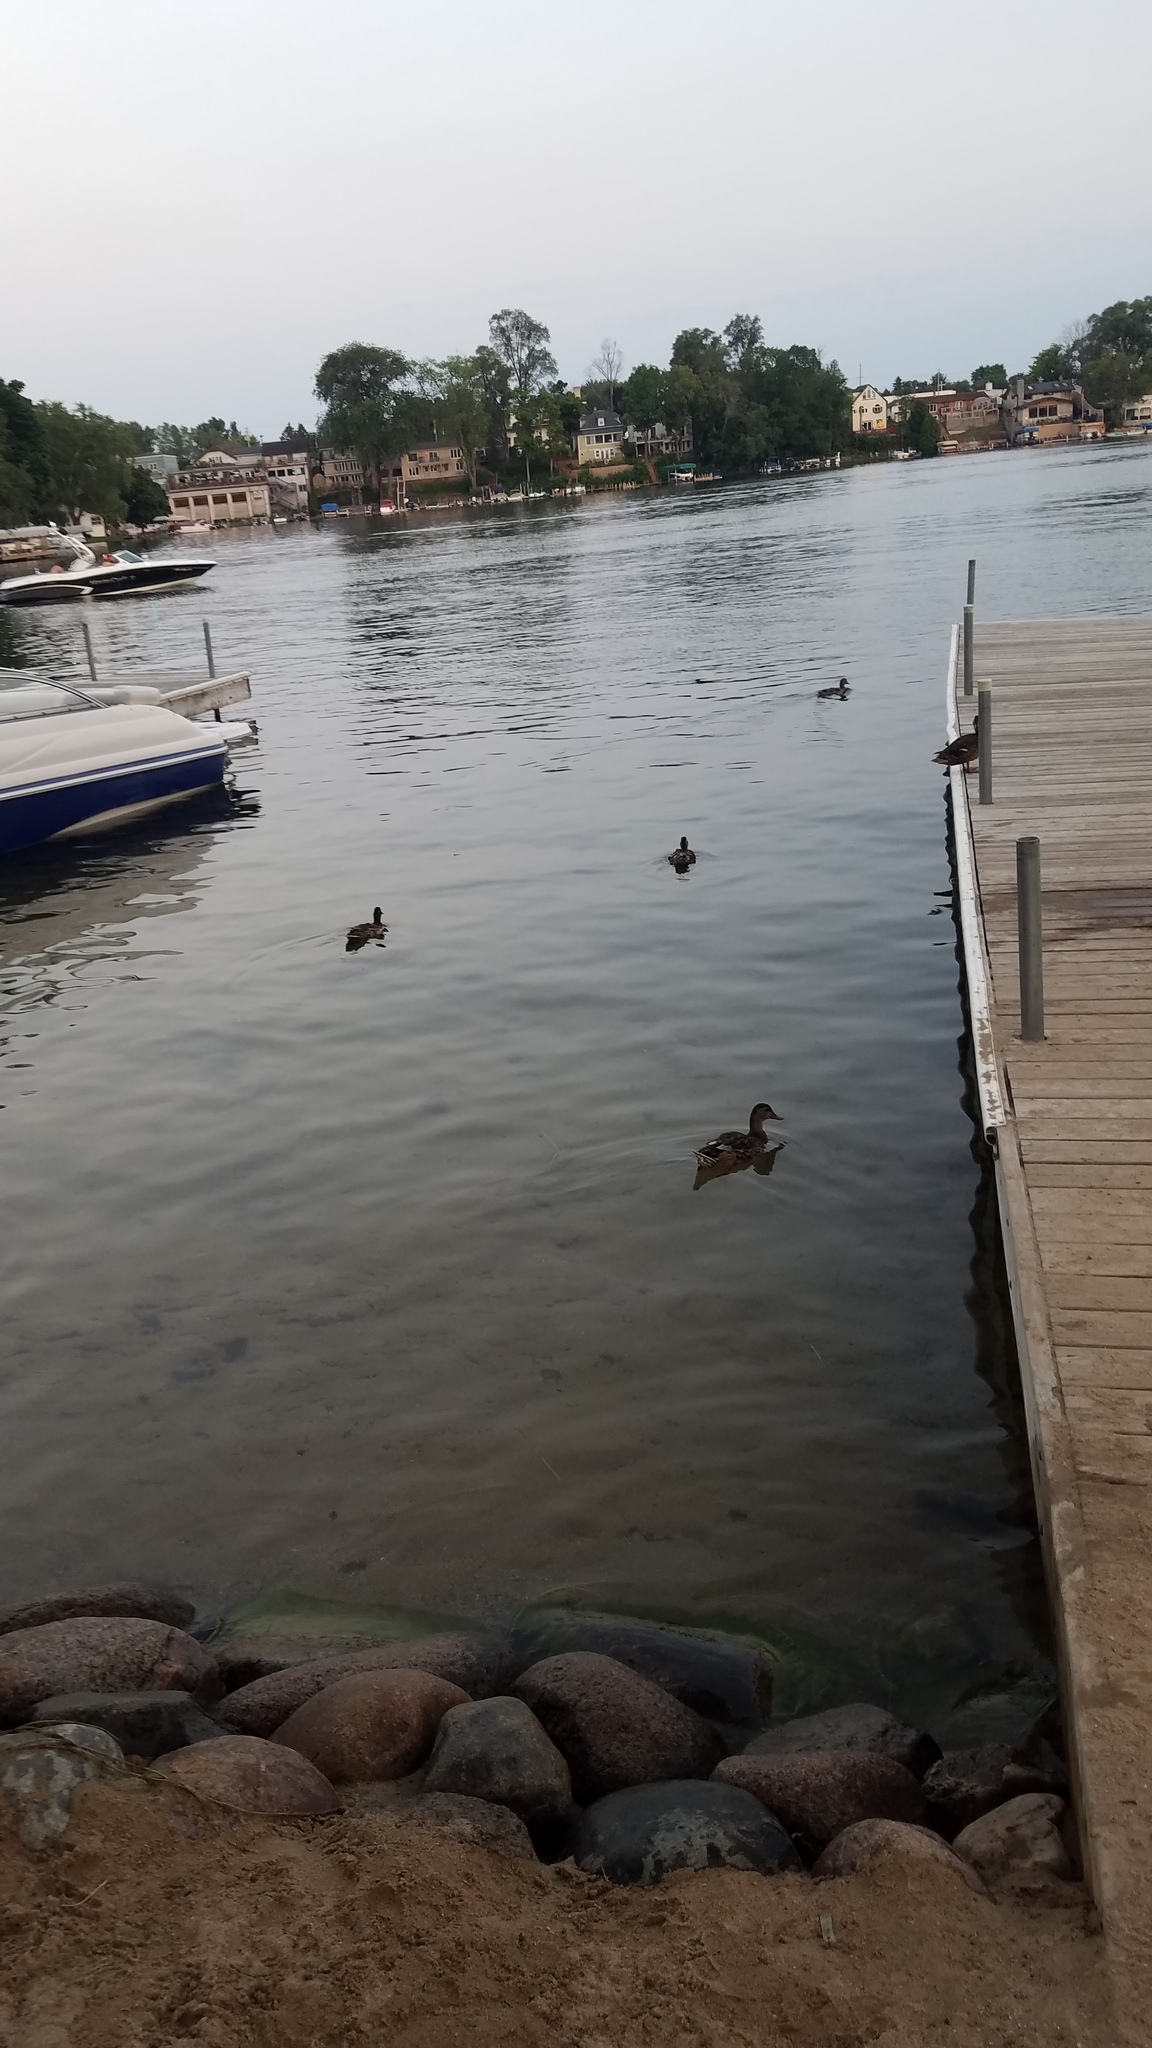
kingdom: Animalia
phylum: Chordata
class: Aves
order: Anseriformes
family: Anatidae
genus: Anas
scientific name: Anas platyrhynchos
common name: Mallard
